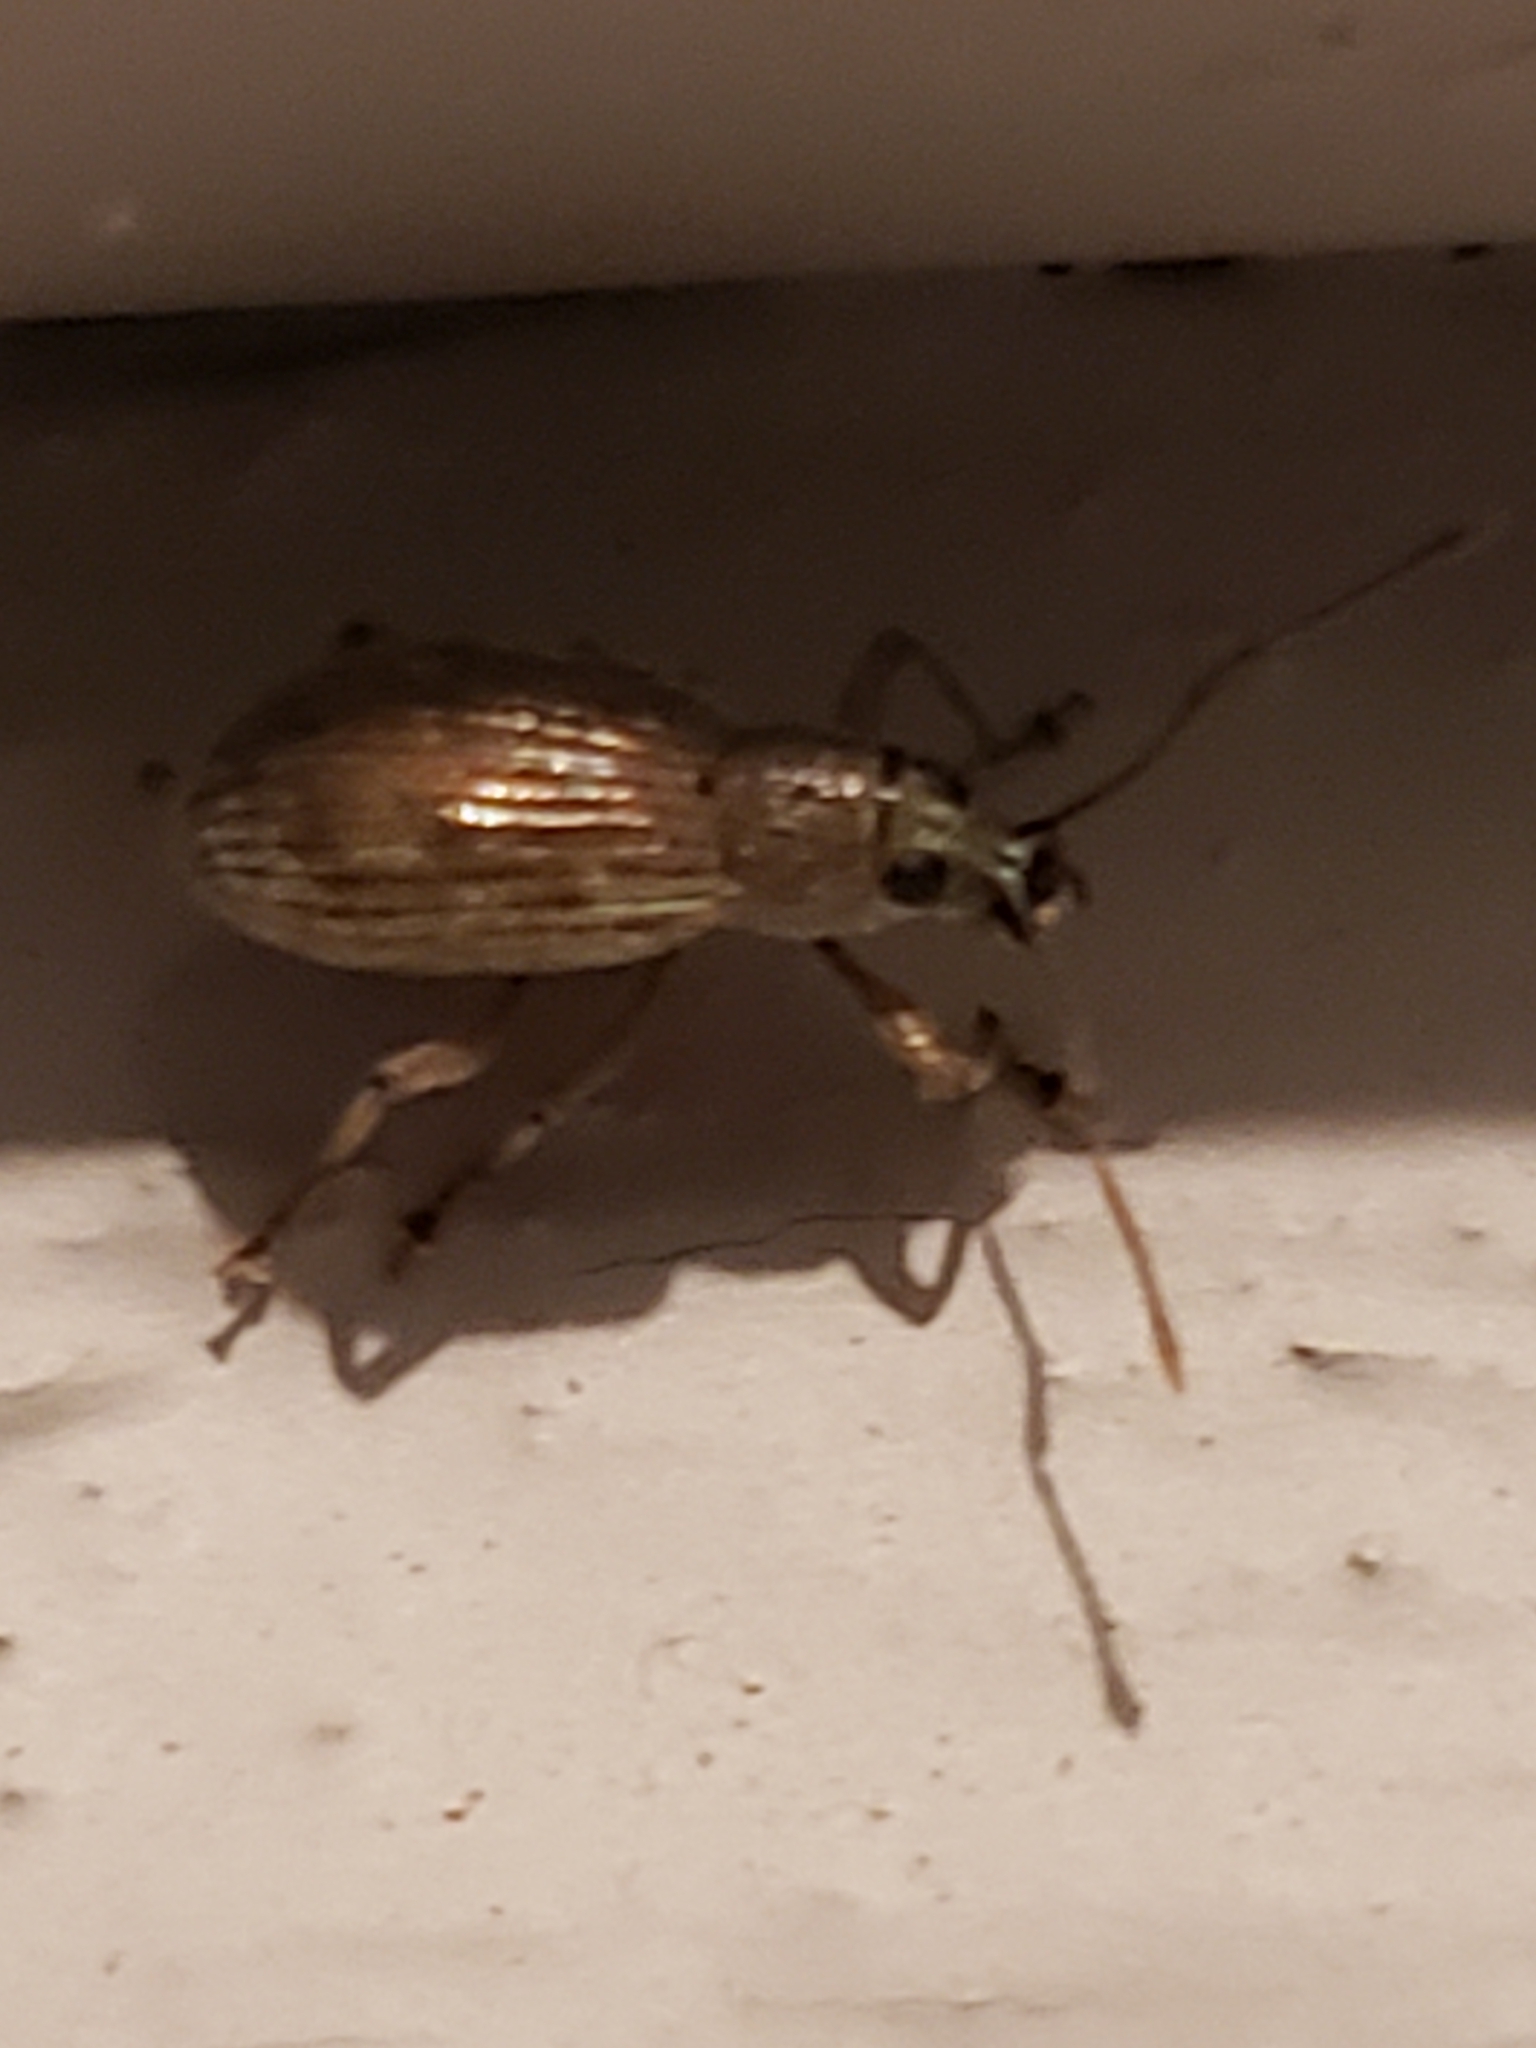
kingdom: Animalia
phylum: Arthropoda
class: Insecta
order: Coleoptera
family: Curculionidae
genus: Cyrtepistomus
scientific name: Cyrtepistomus castaneus
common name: Weevil
